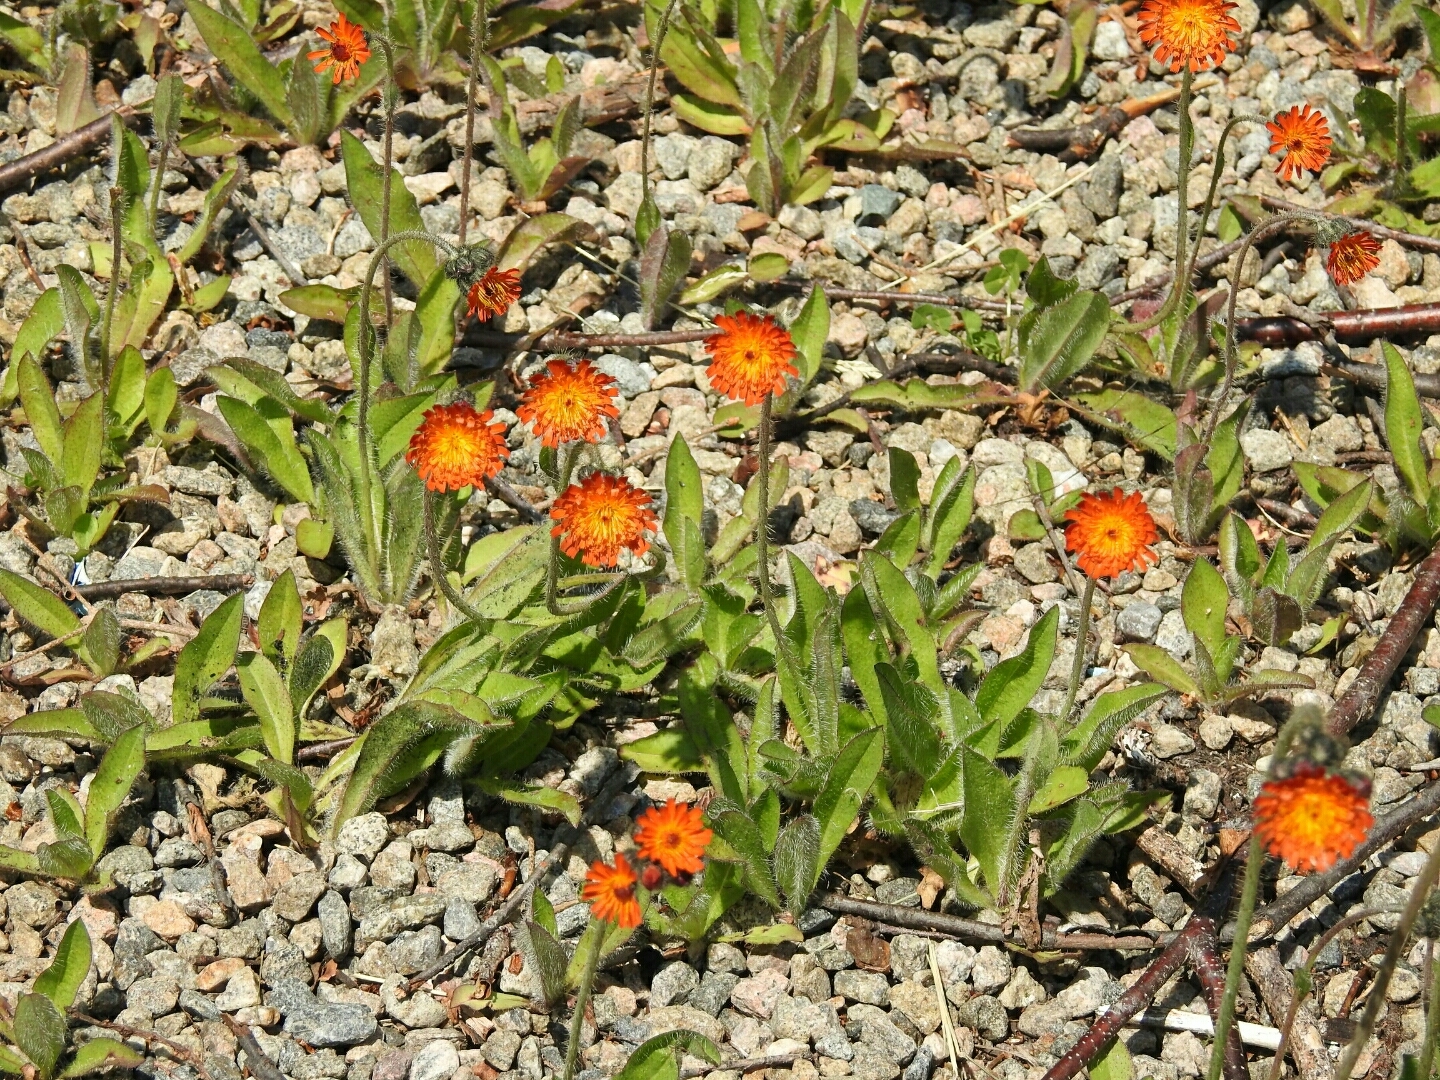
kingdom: Plantae
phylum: Tracheophyta
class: Magnoliopsida
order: Asterales
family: Asteraceae
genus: Pilosella
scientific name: Pilosella aurantiaca
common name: Fox-and-cubs
